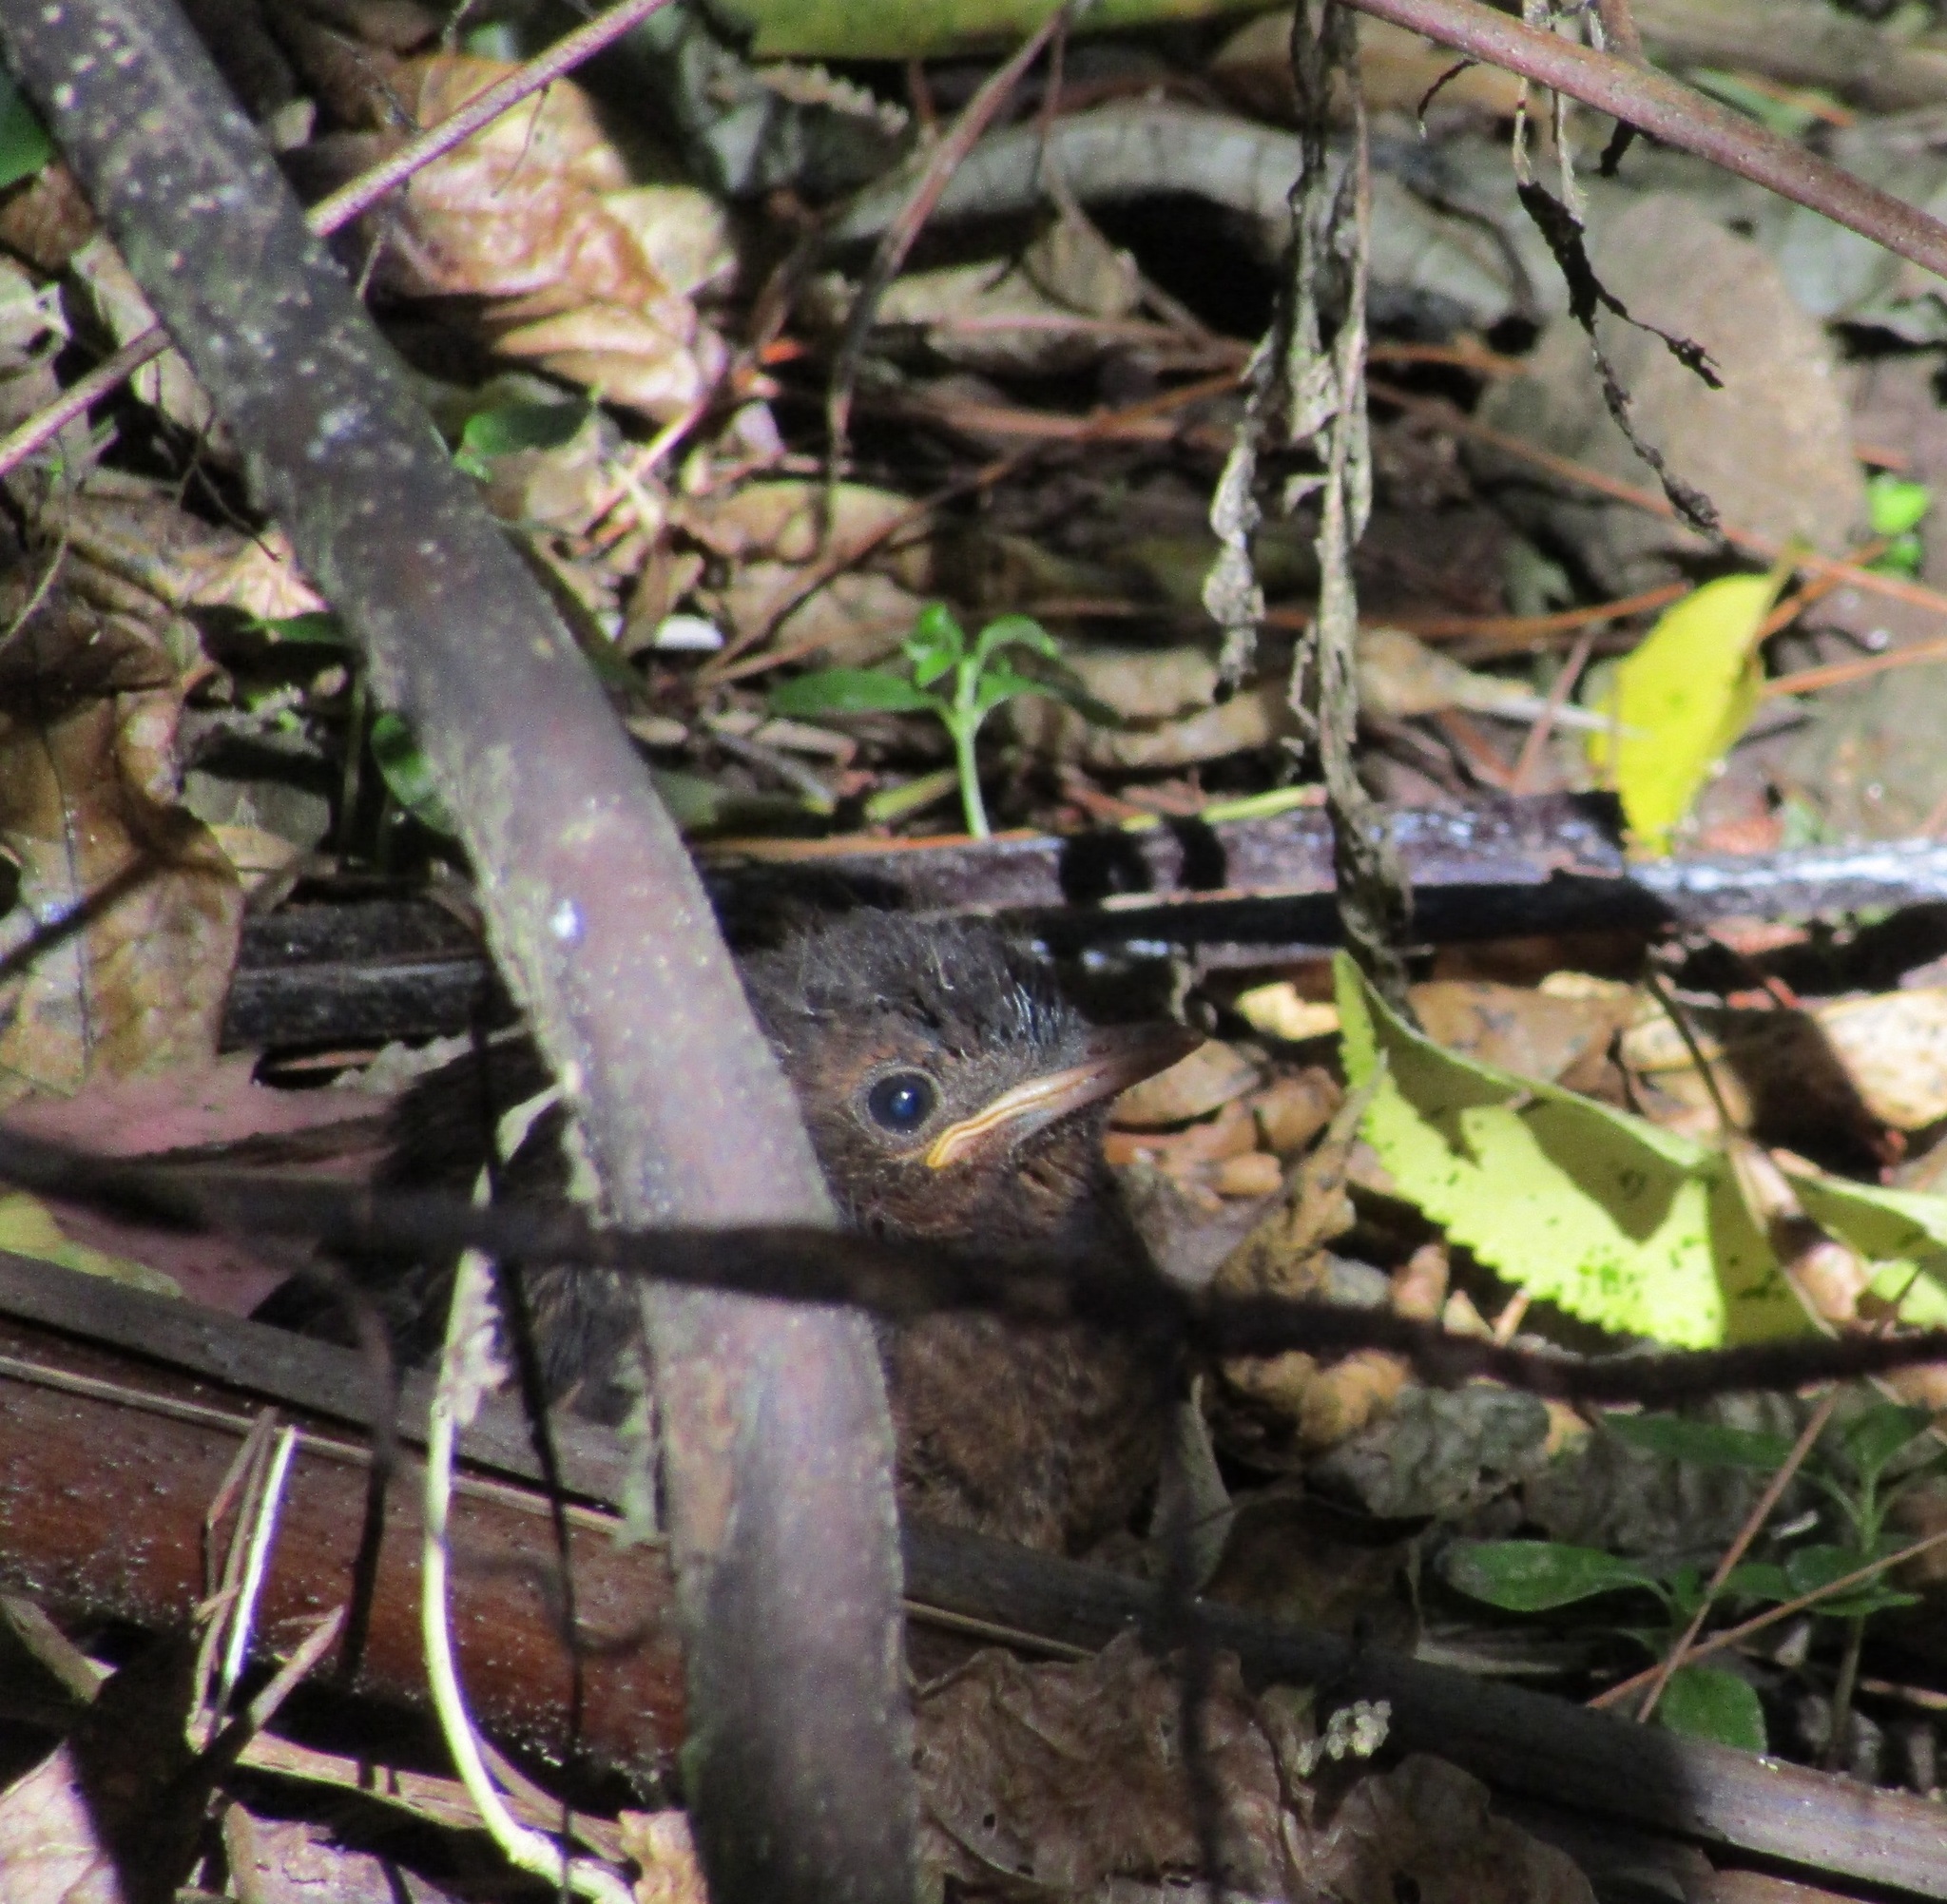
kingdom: Animalia
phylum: Chordata
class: Aves
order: Passeriformes
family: Turdidae
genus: Turdus
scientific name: Turdus merula
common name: Common blackbird
